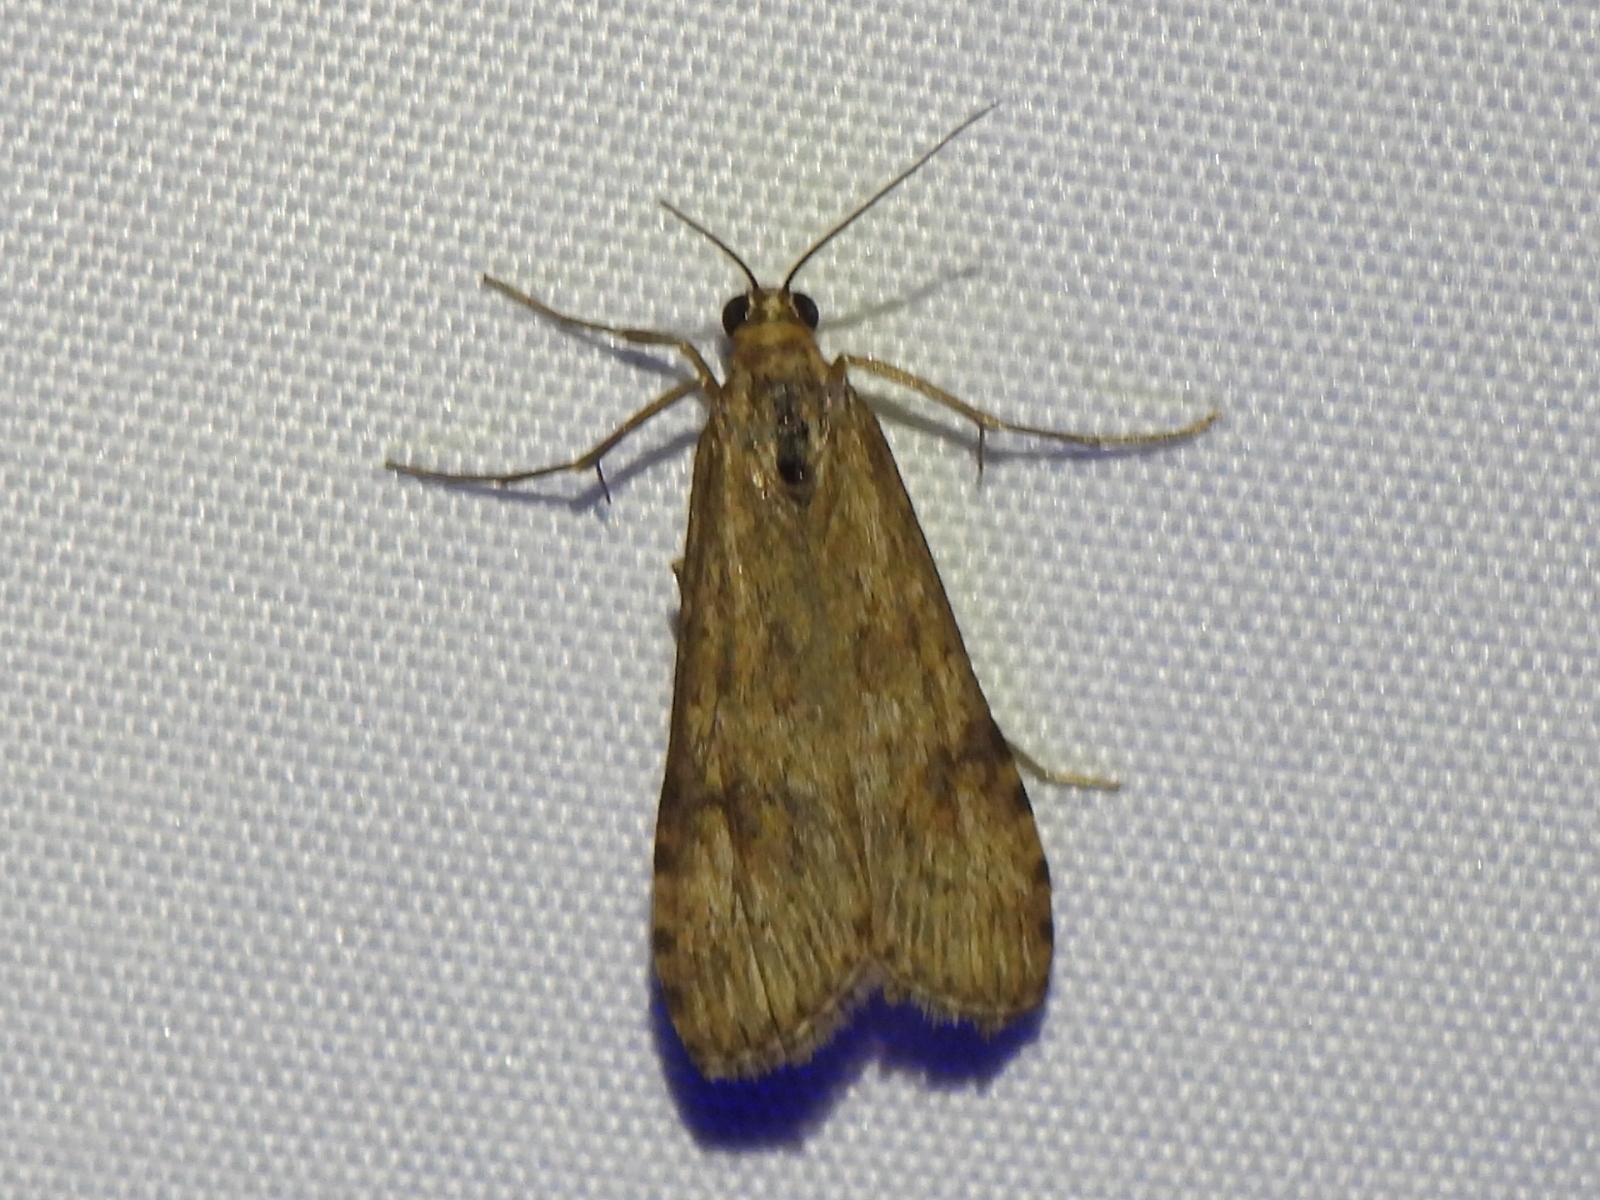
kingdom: Animalia
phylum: Arthropoda
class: Insecta
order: Lepidoptera
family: Crambidae
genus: Nomophila
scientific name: Nomophila nearctica
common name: American rush veneer
